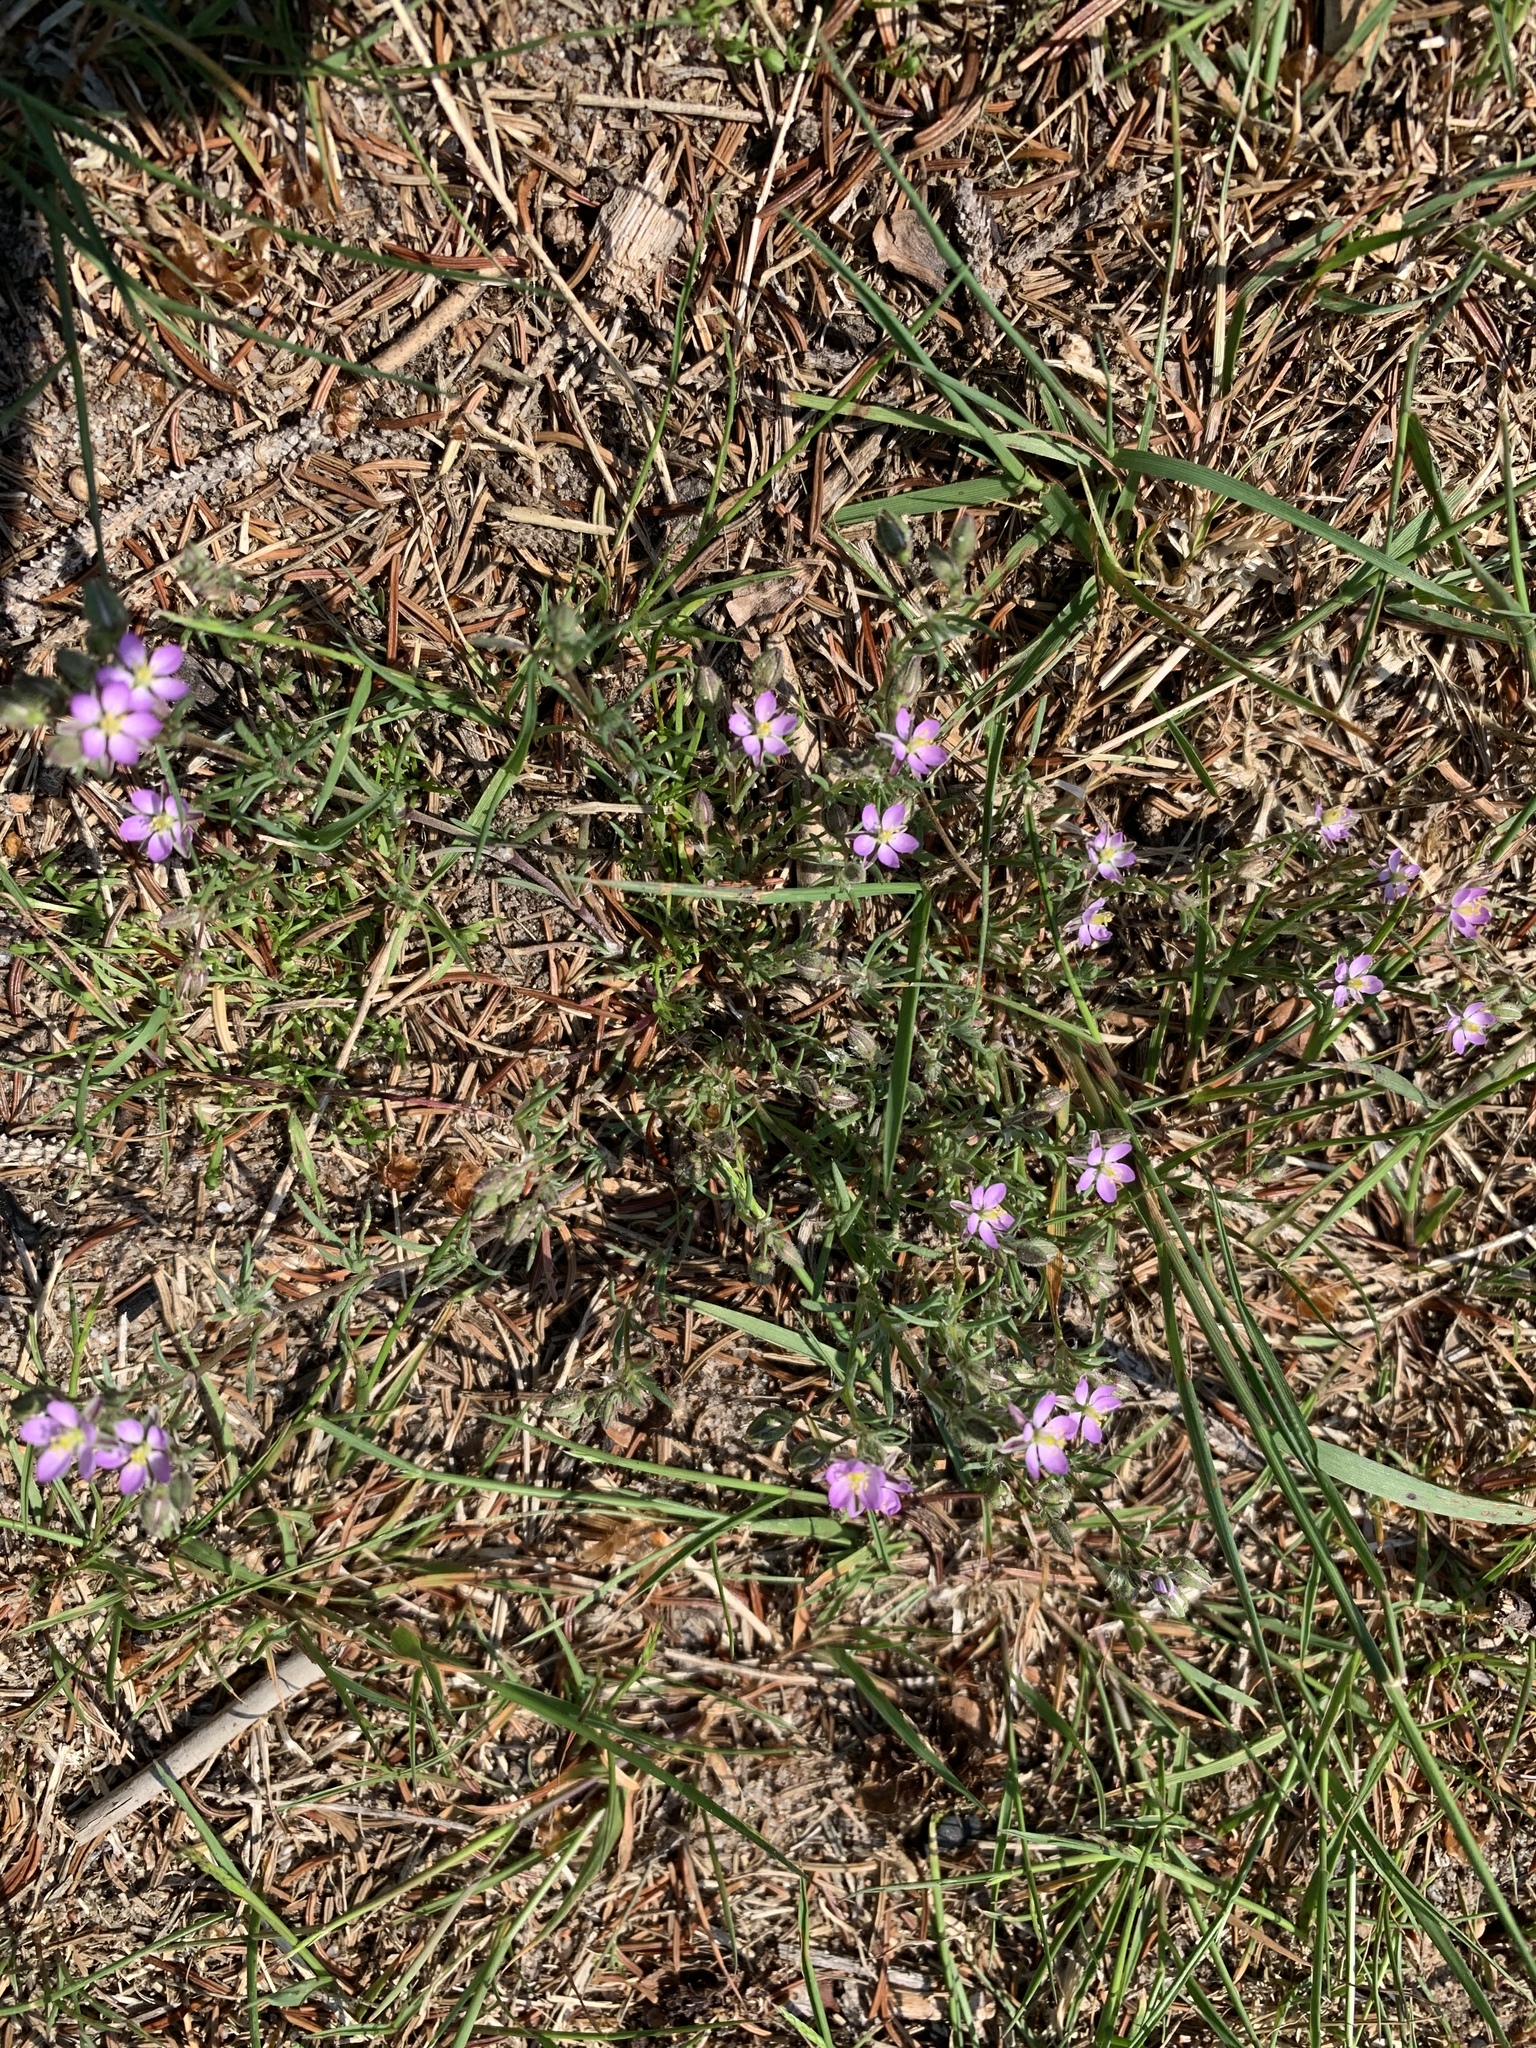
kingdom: Plantae
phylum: Tracheophyta
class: Magnoliopsida
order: Caryophyllales
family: Caryophyllaceae
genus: Spergularia
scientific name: Spergularia rubra
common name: Red sand-spurrey
